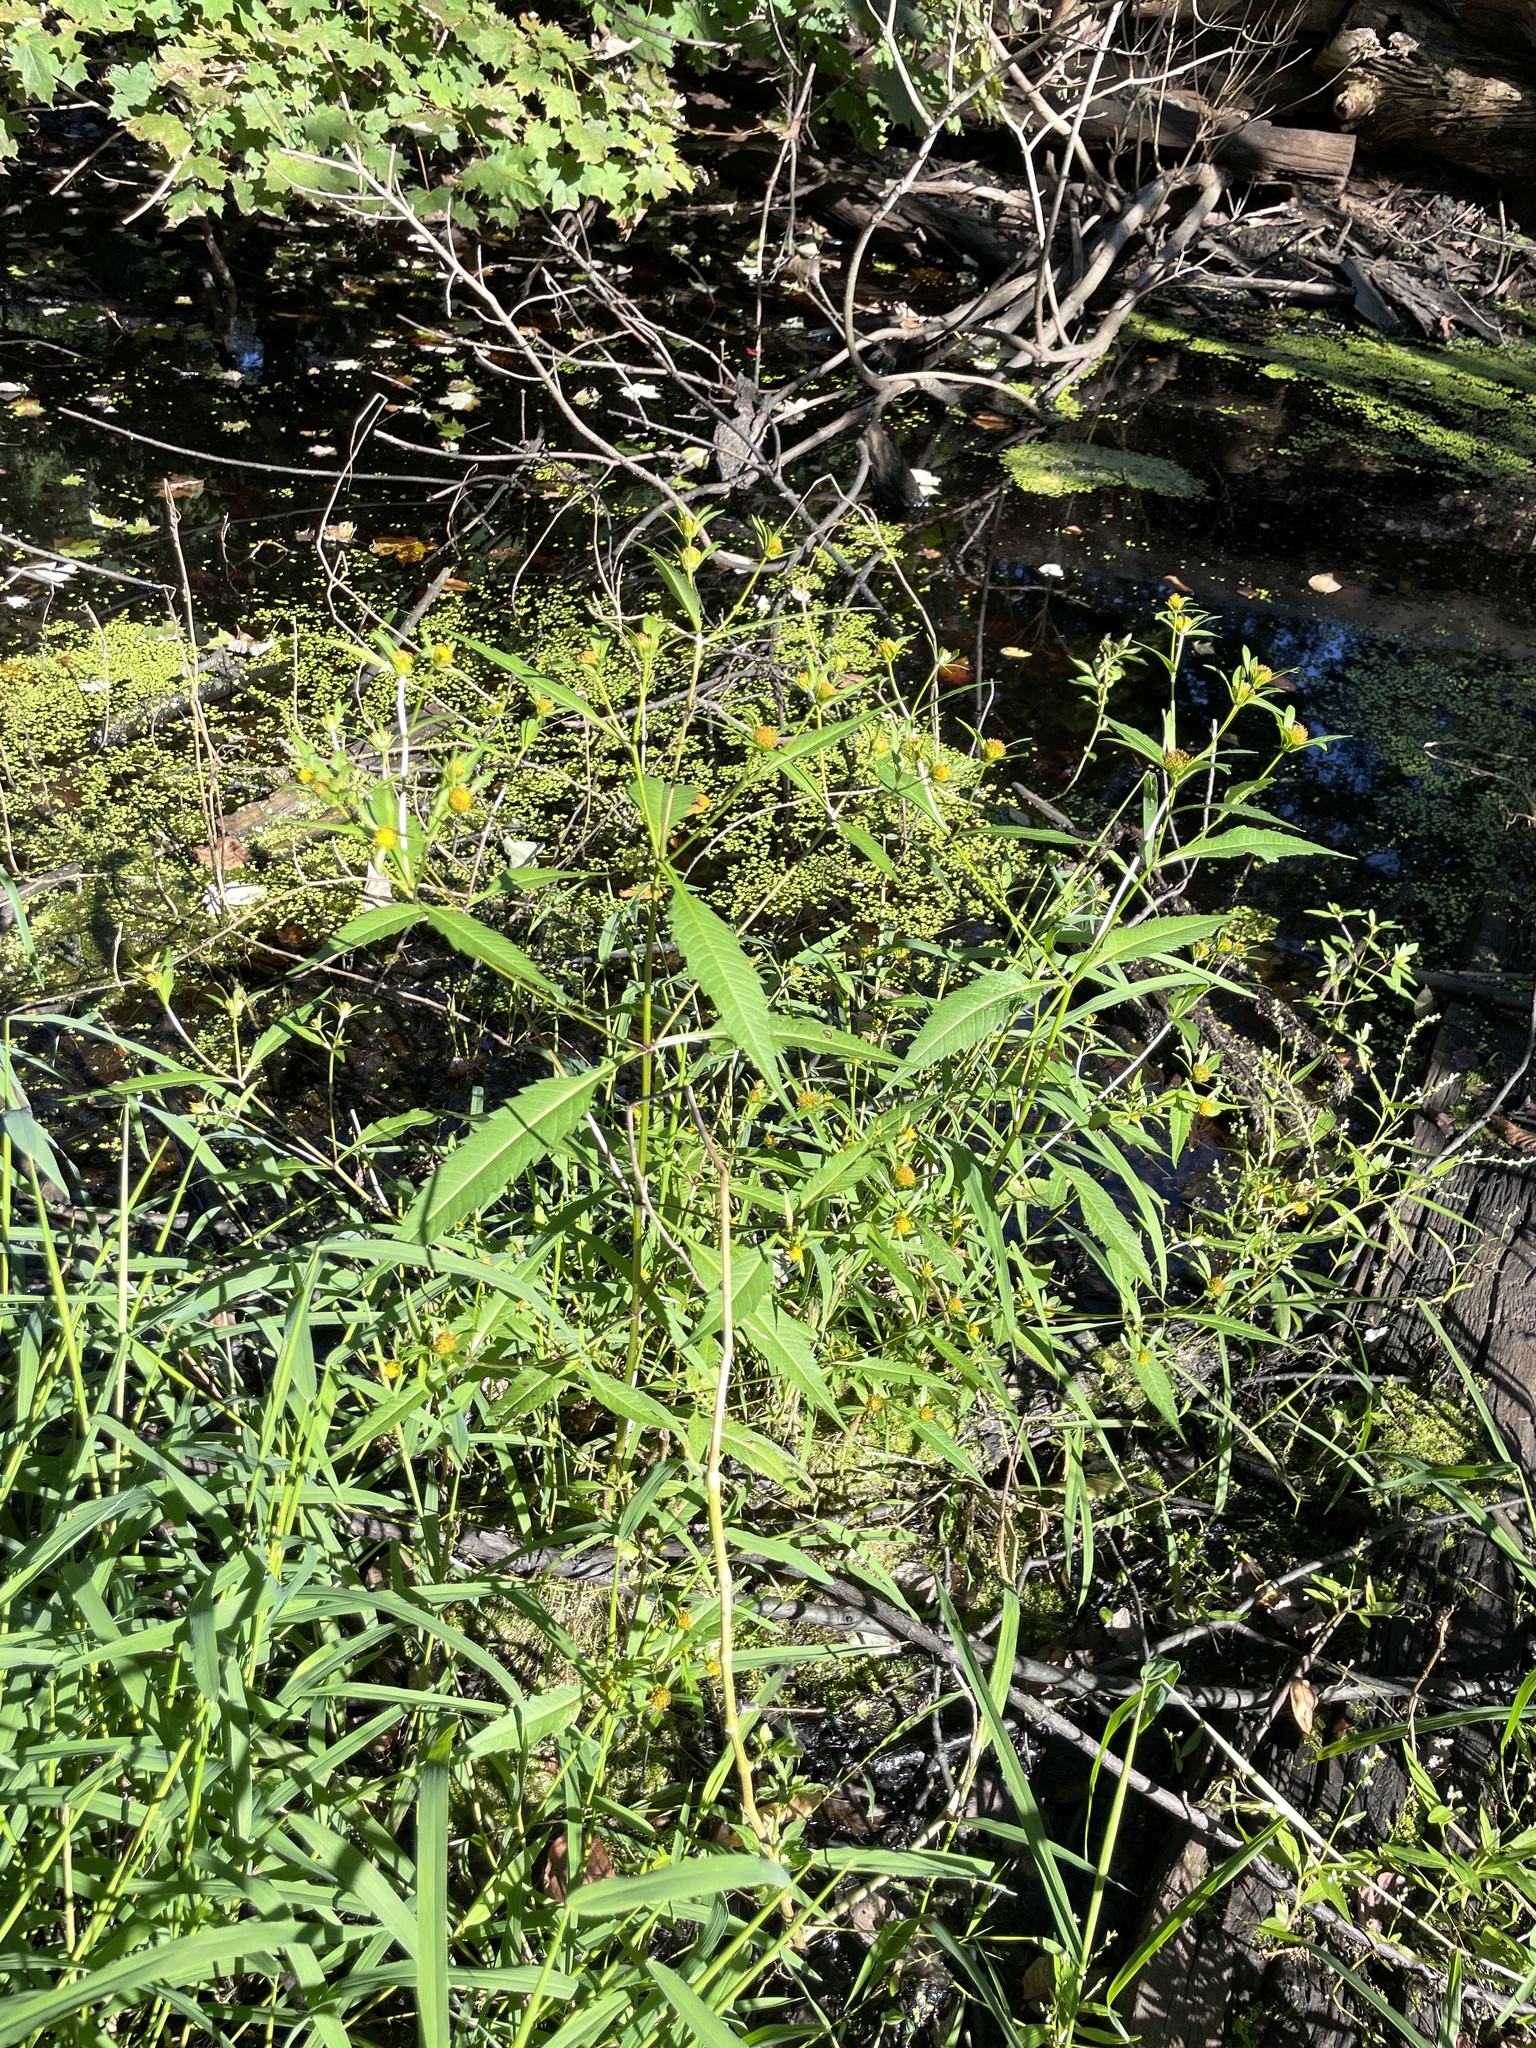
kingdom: Plantae
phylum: Tracheophyta
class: Magnoliopsida
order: Asterales
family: Asteraceae
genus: Bidens
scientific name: Bidens connata
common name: London bur-marigold
